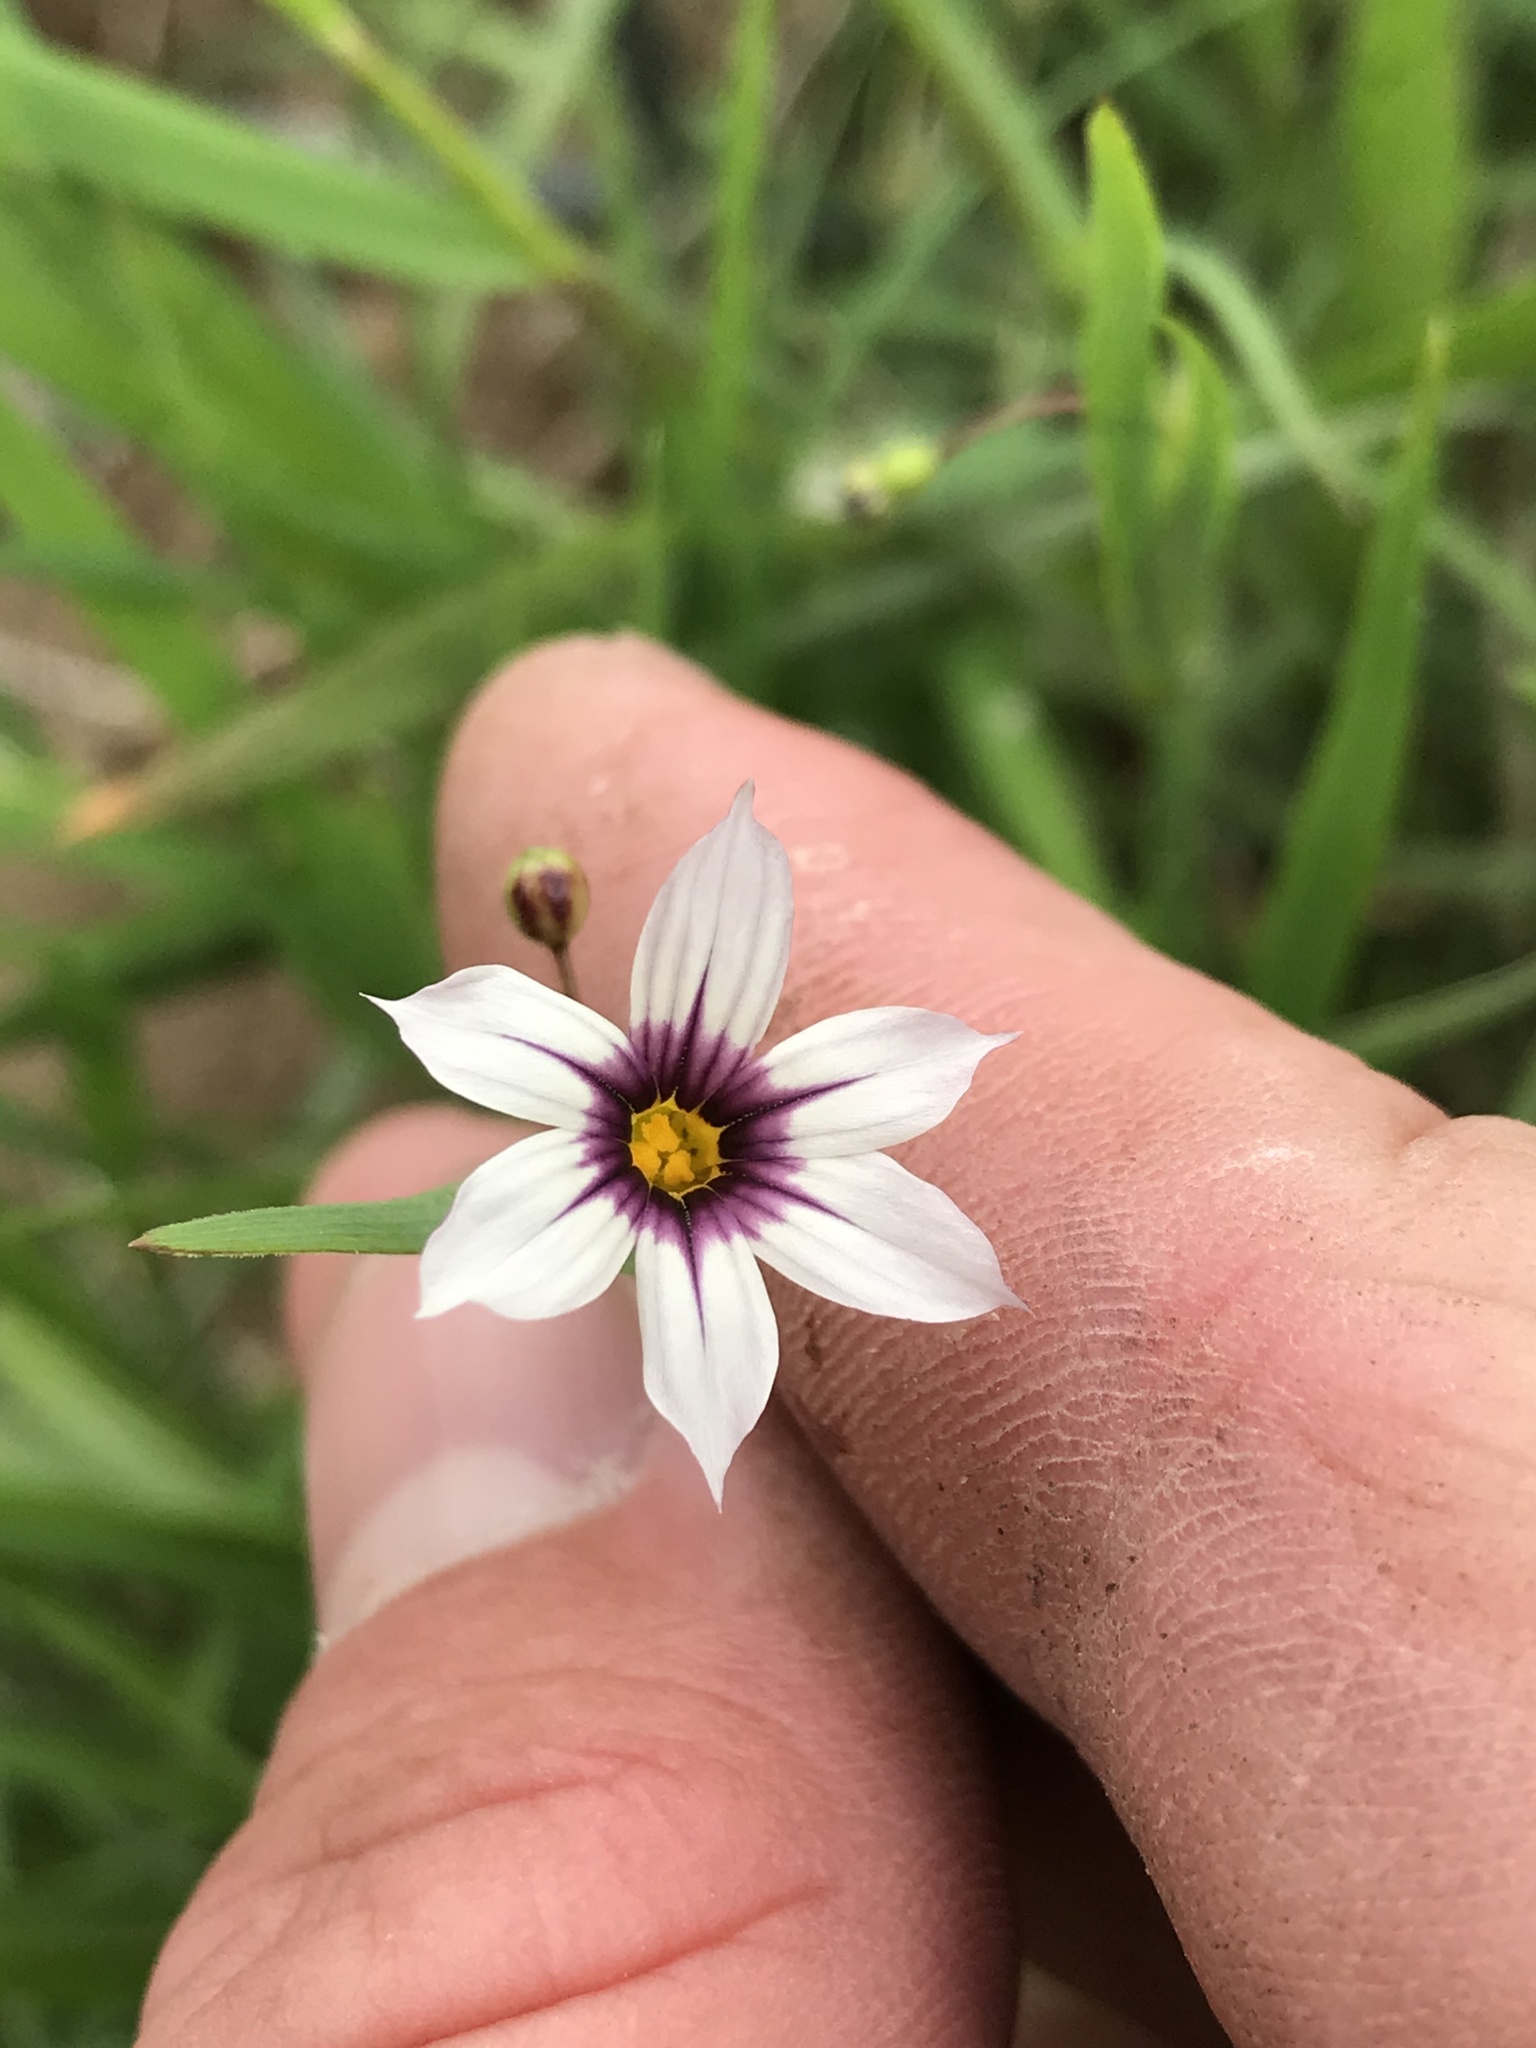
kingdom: Plantae
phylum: Tracheophyta
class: Liliopsida
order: Asparagales
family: Iridaceae
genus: Sisyrinchium
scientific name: Sisyrinchium micranthum
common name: Bermuda pigroot
